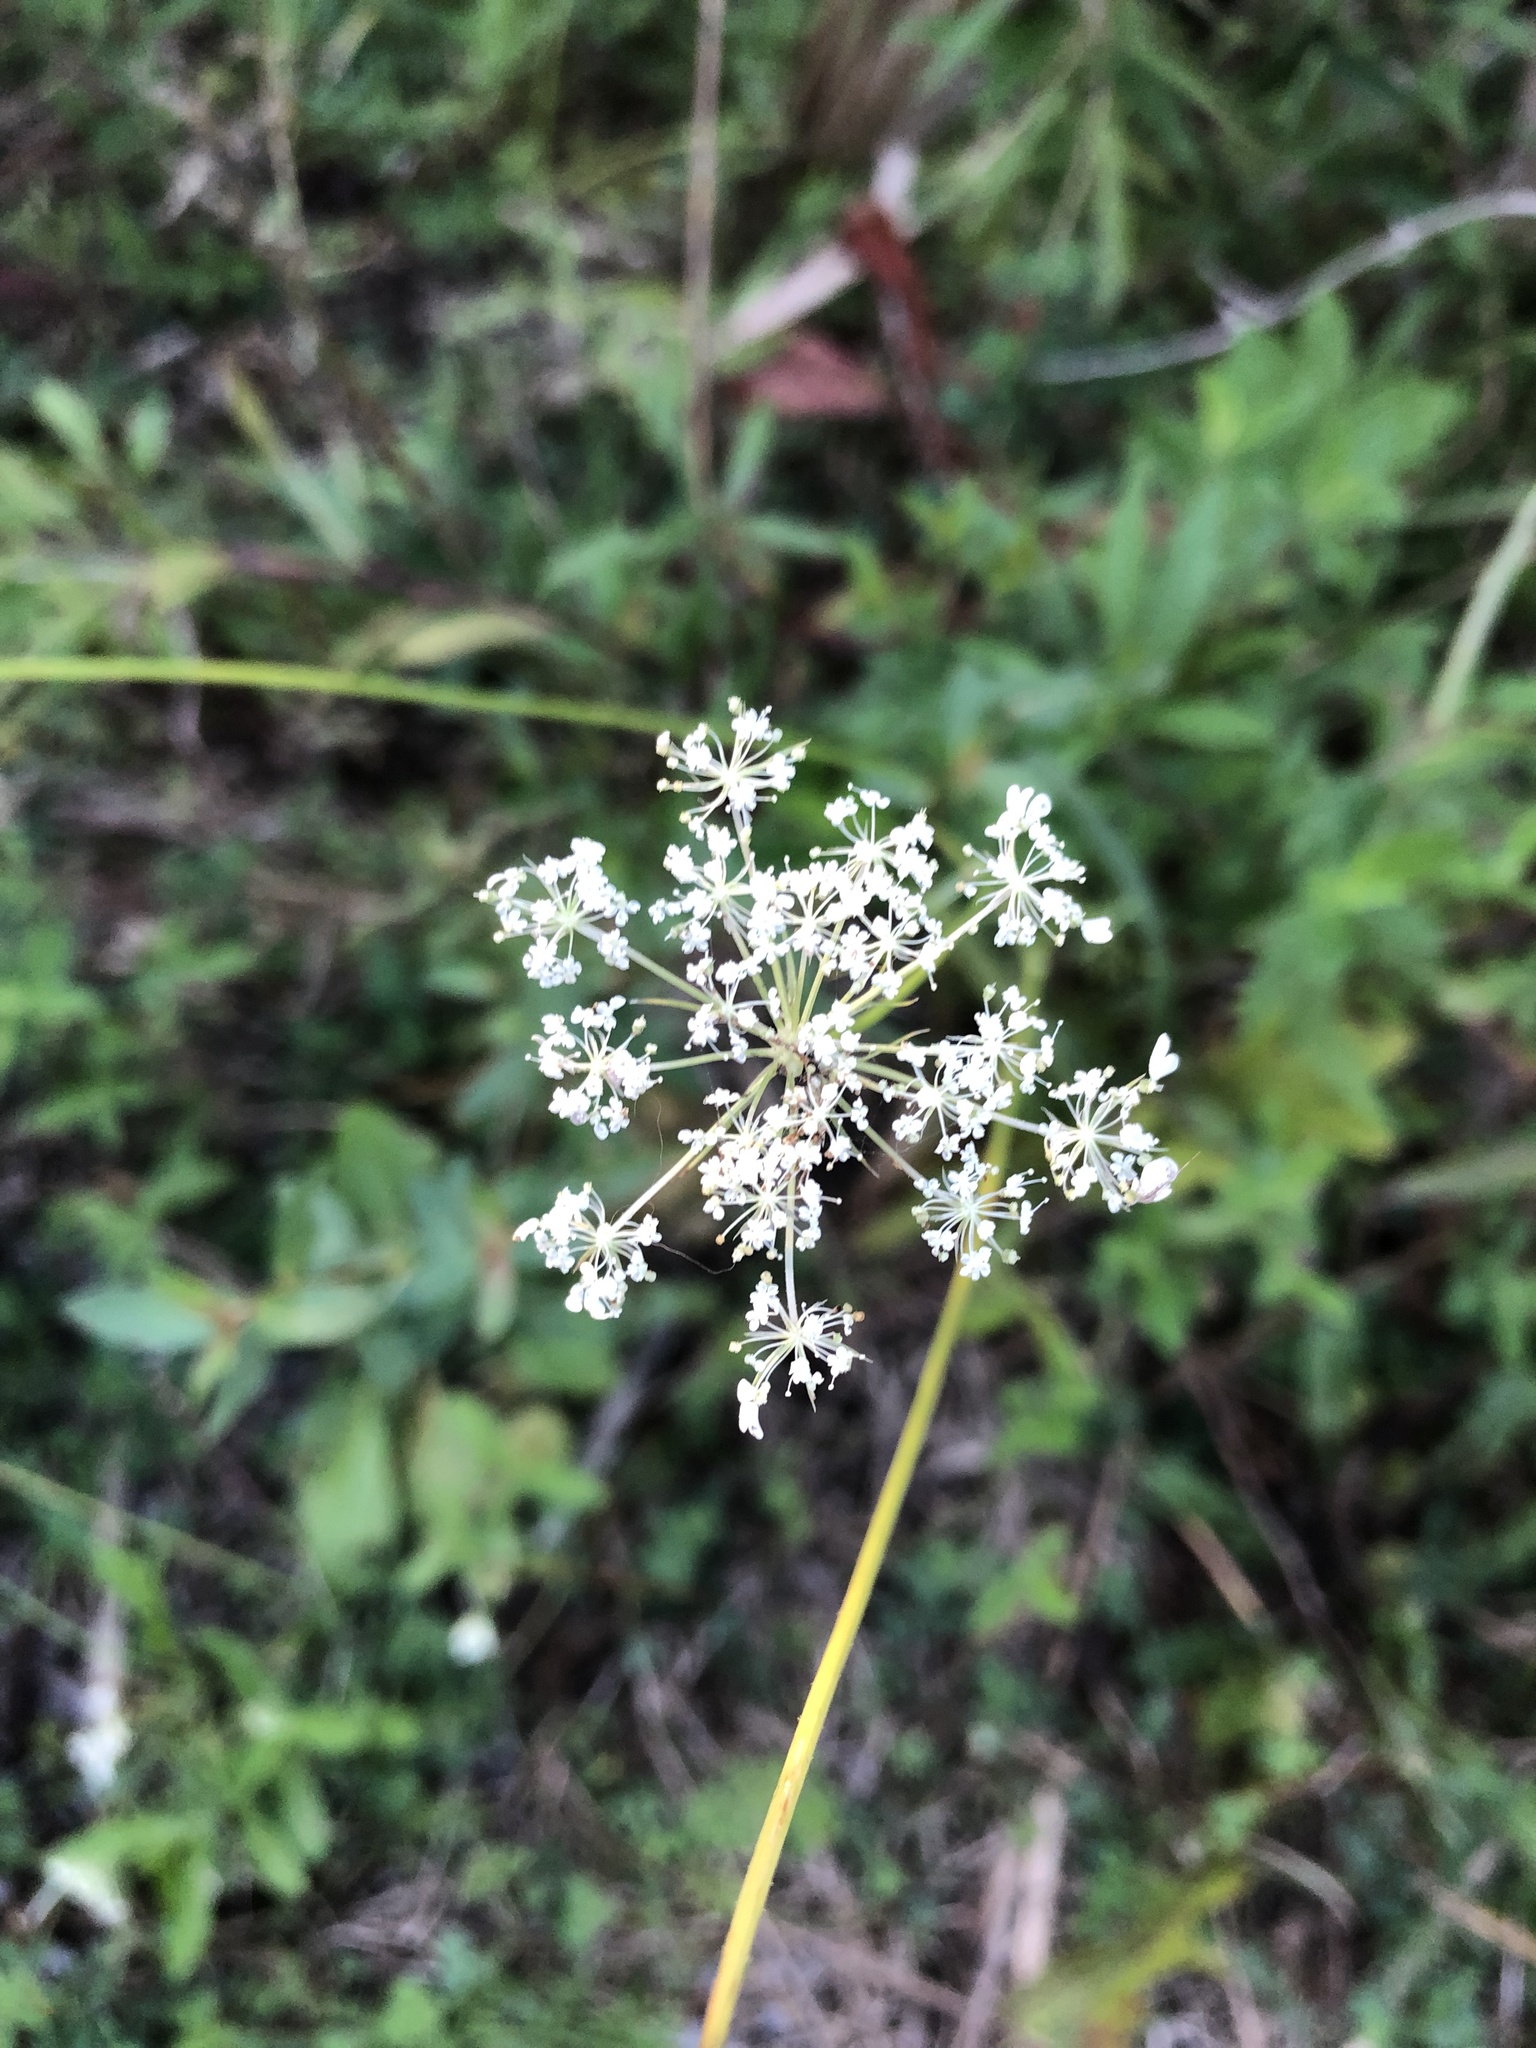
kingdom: Plantae
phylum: Tracheophyta
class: Magnoliopsida
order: Apiales
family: Apiaceae
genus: Daucus
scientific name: Daucus carota
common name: Wild carrot
